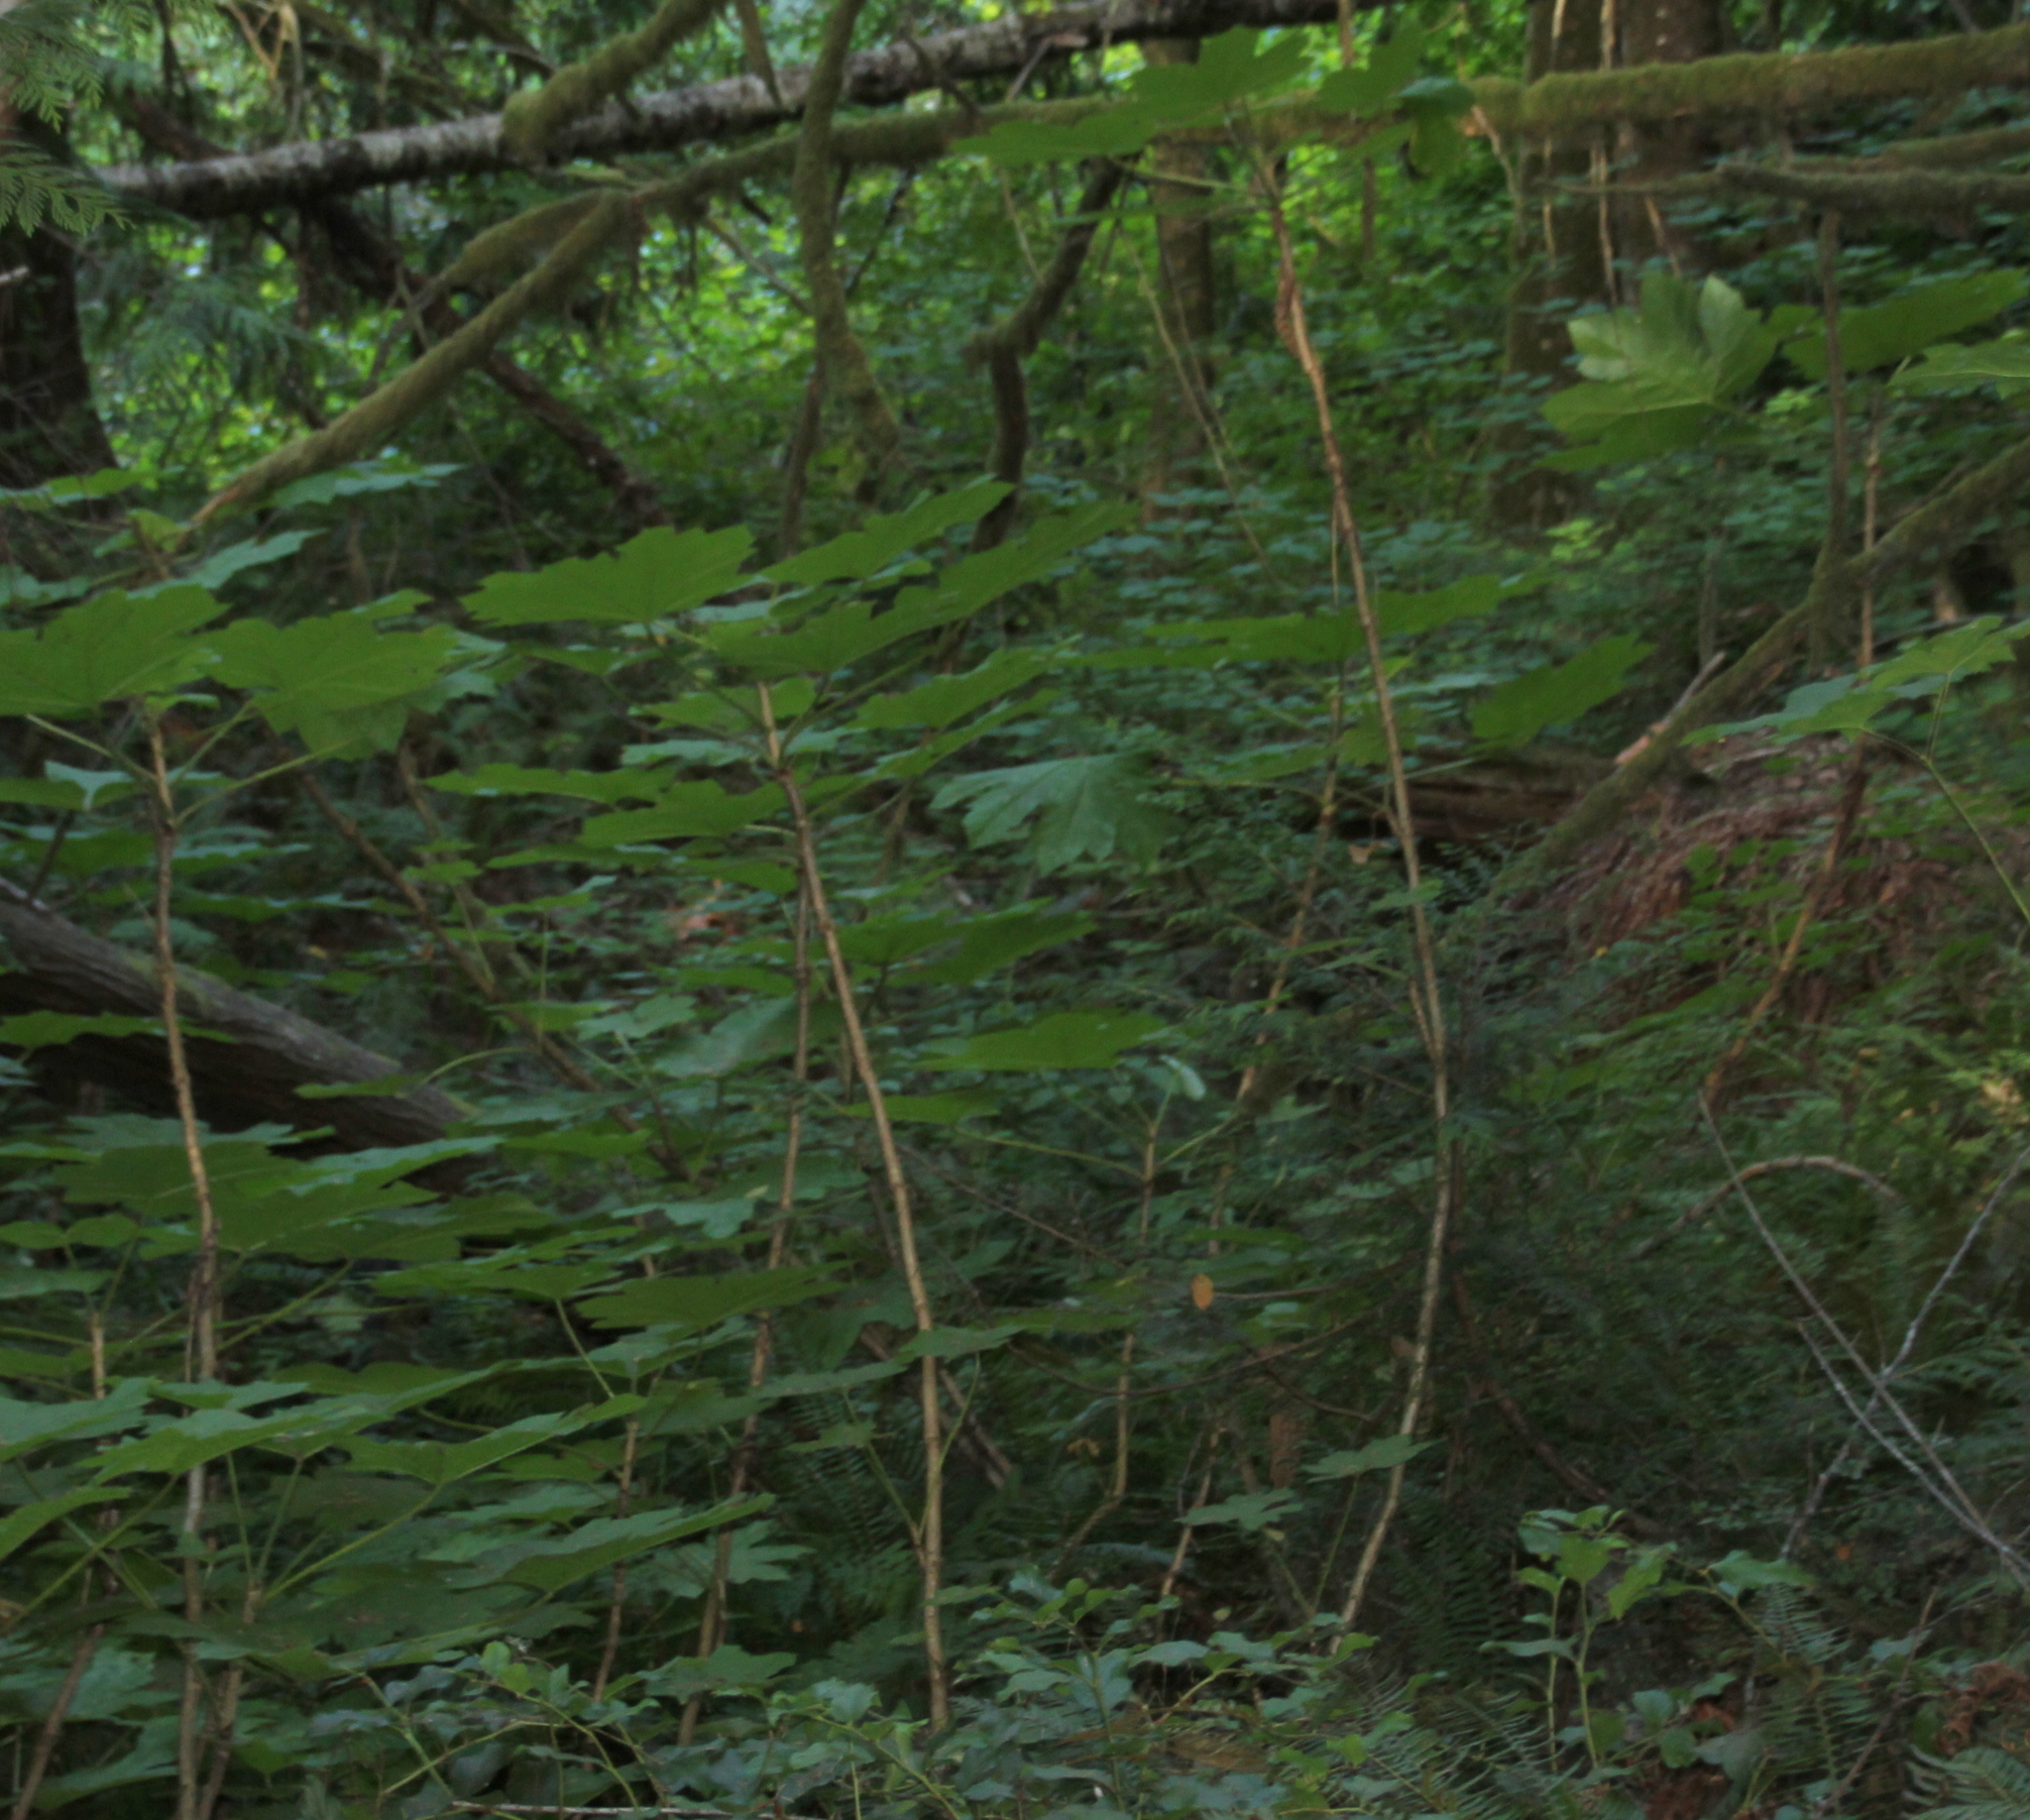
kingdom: Plantae
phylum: Tracheophyta
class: Magnoliopsida
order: Apiales
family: Araliaceae
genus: Oplopanax
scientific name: Oplopanax horridus
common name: Devil's walking-stick
